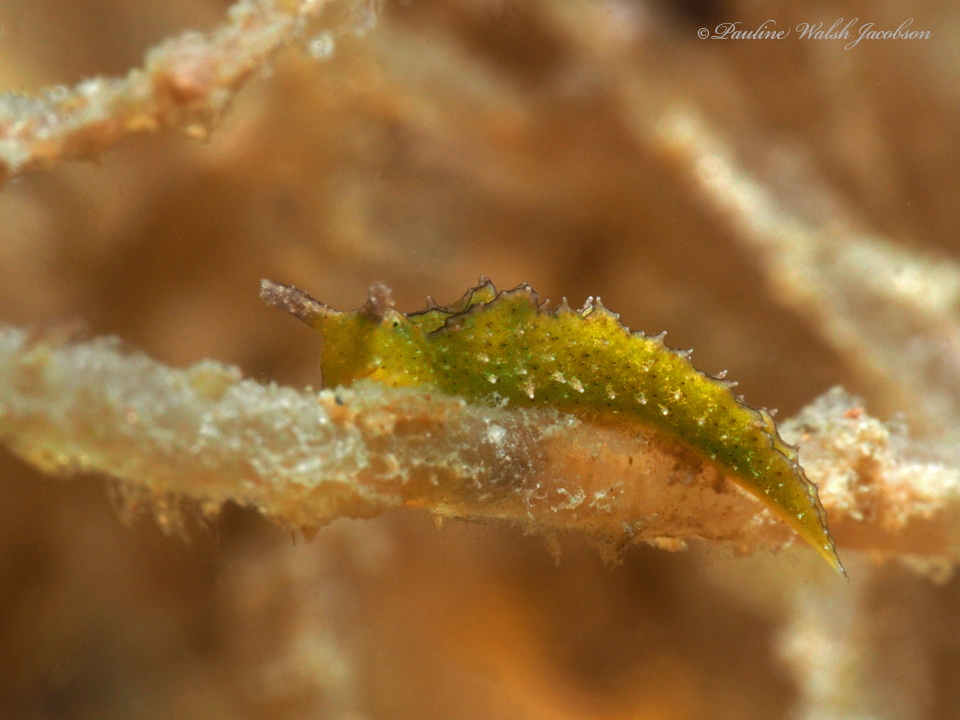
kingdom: Animalia
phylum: Mollusca
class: Gastropoda
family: Plakobranchidae
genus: Elysia
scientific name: Elysia subornata
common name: Ruffled elysia
